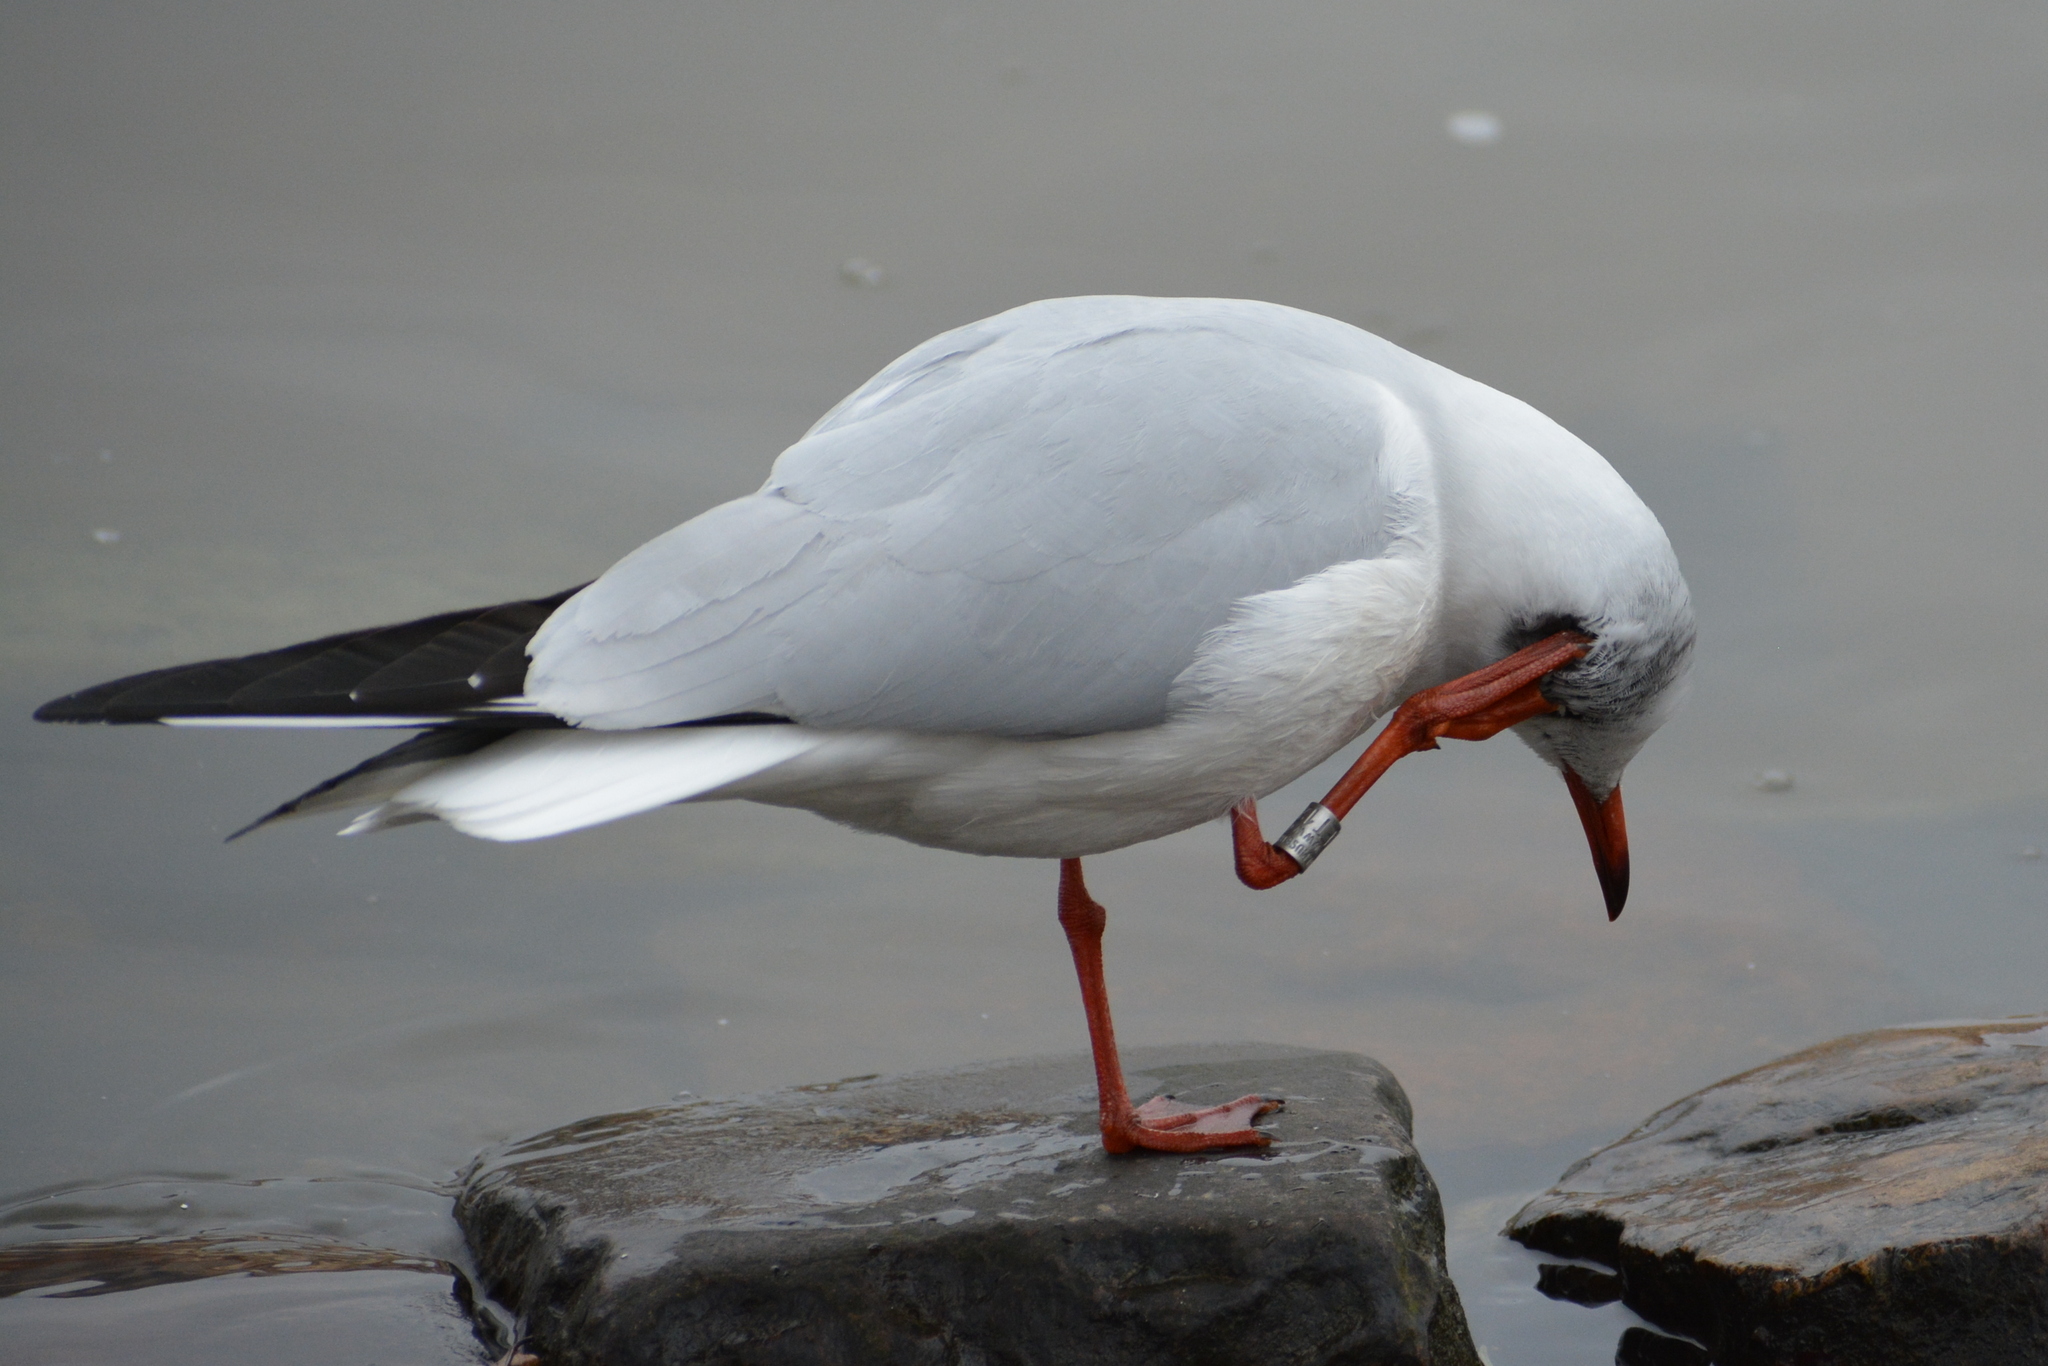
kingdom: Animalia
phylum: Chordata
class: Aves
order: Charadriiformes
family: Laridae
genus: Chroicocephalus
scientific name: Chroicocephalus ridibundus
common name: Black-headed gull
